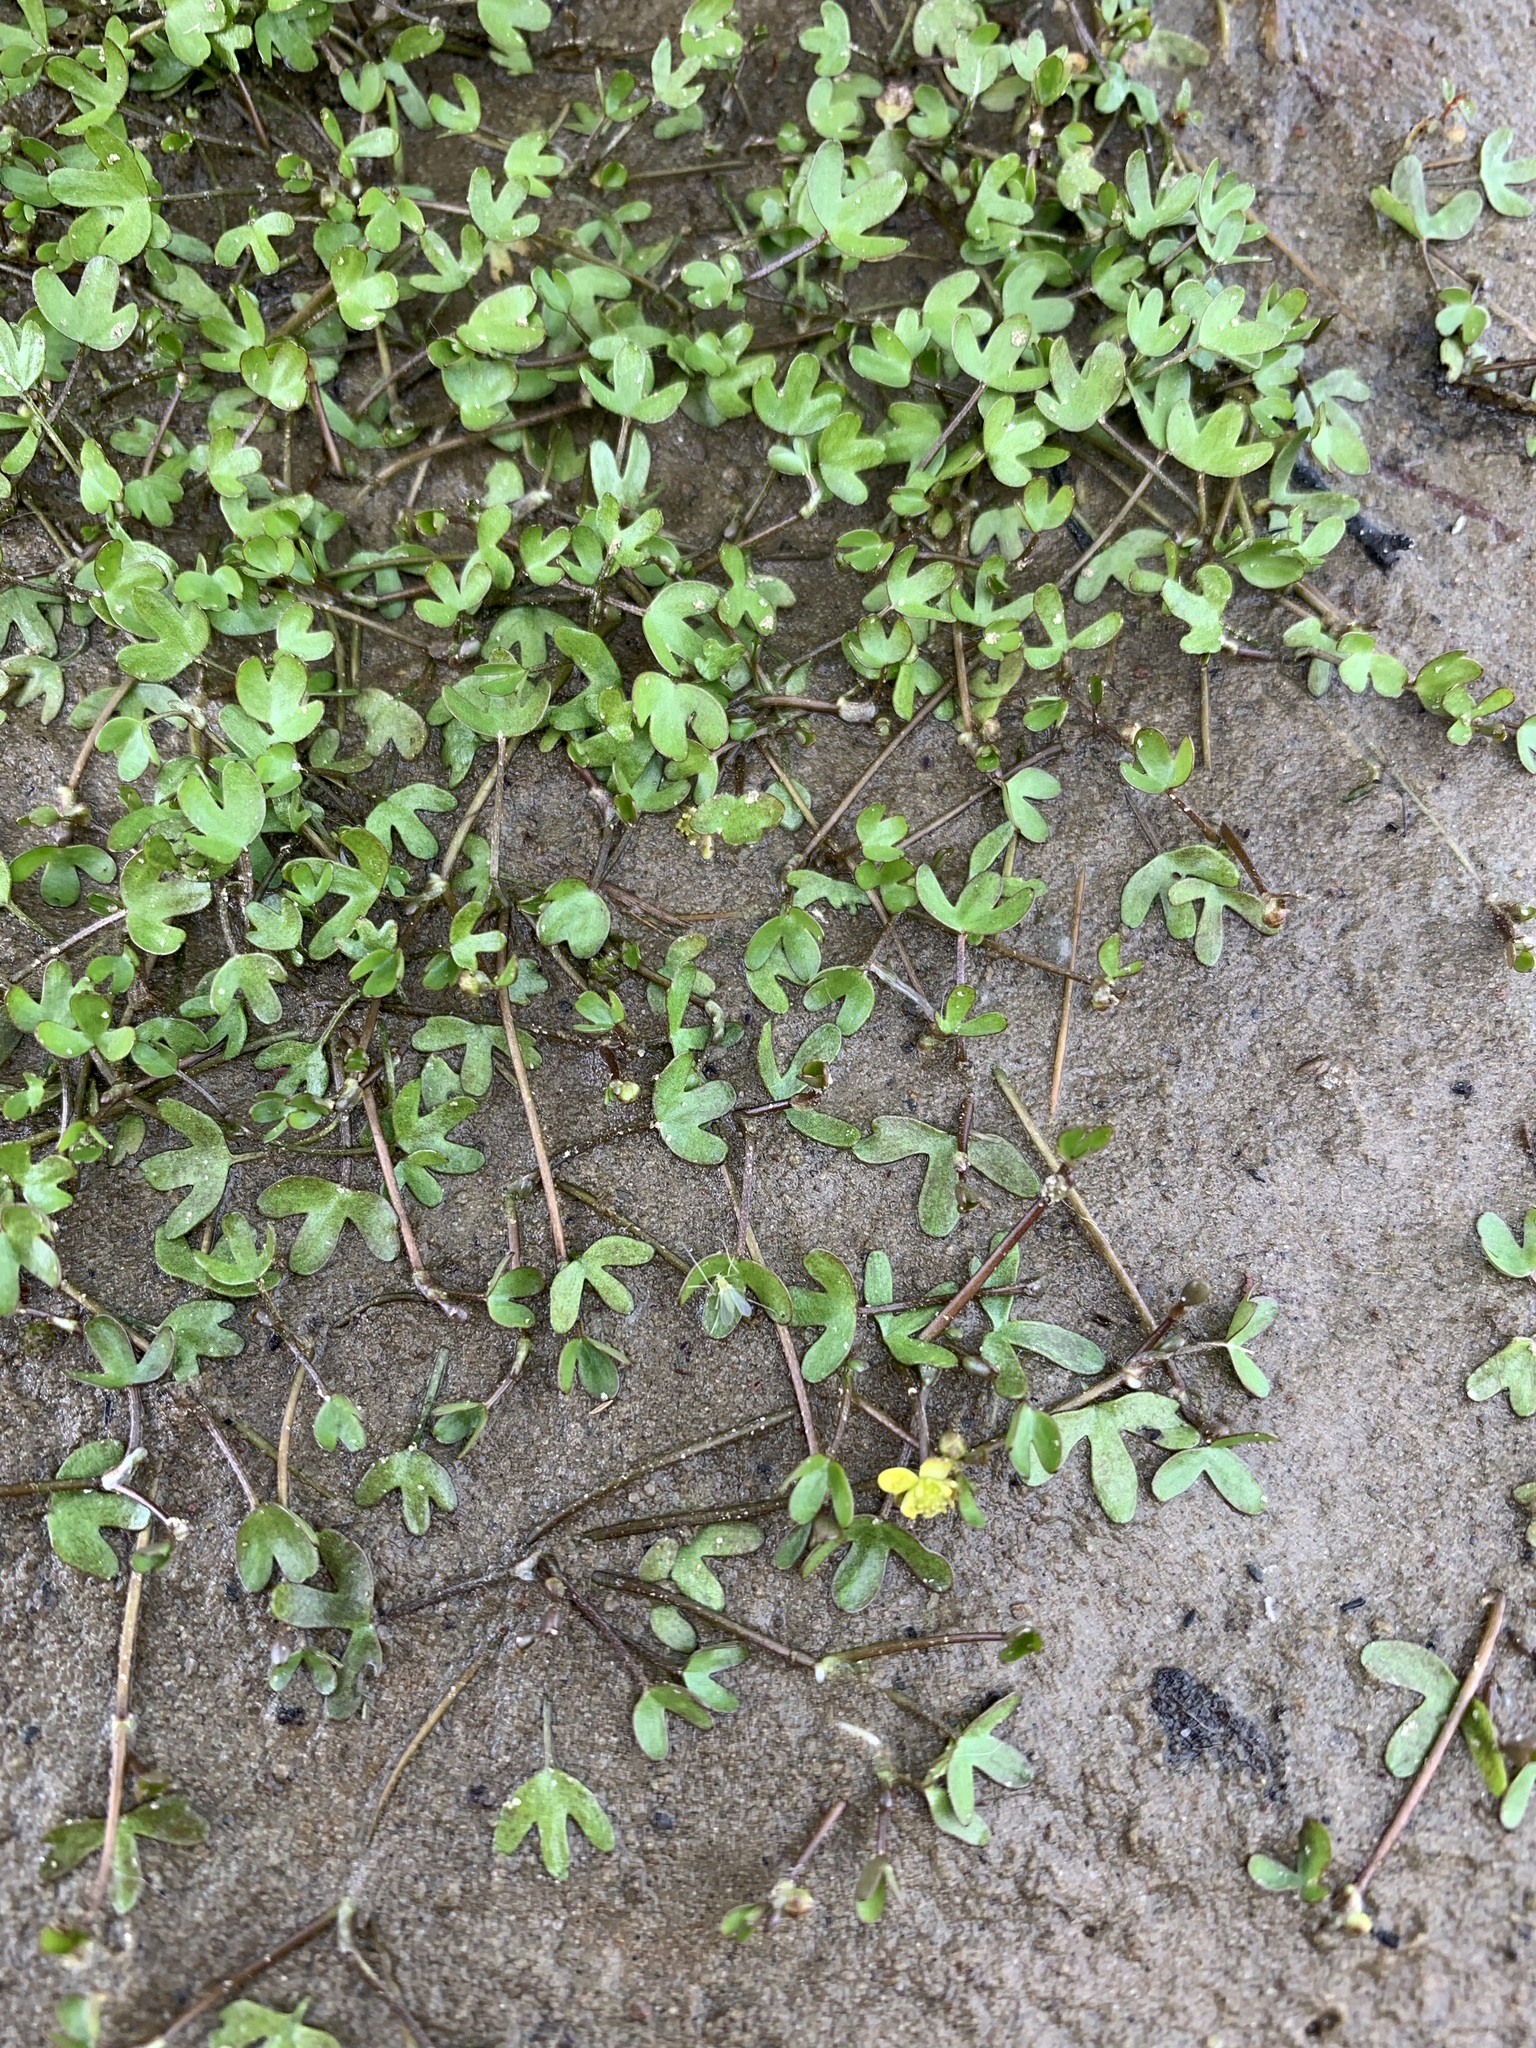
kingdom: Plantae
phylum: Tracheophyta
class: Magnoliopsida
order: Ranunculales
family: Ranunculaceae
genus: Ranunculus
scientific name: Ranunculus hyperboreus
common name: Arctic buttercup
